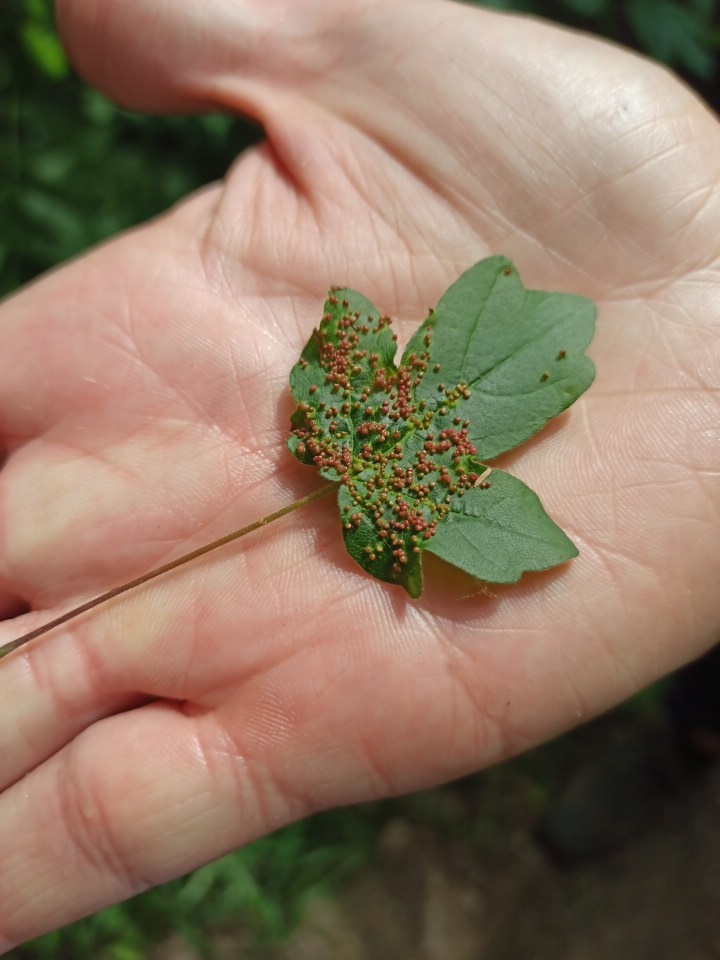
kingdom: Fungi
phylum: Basidiomycota
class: Pucciniomycetes
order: Pucciniales
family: Pucciniaceae
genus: Puccinia
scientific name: Puccinia malvacearum
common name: Hollyhock rust
